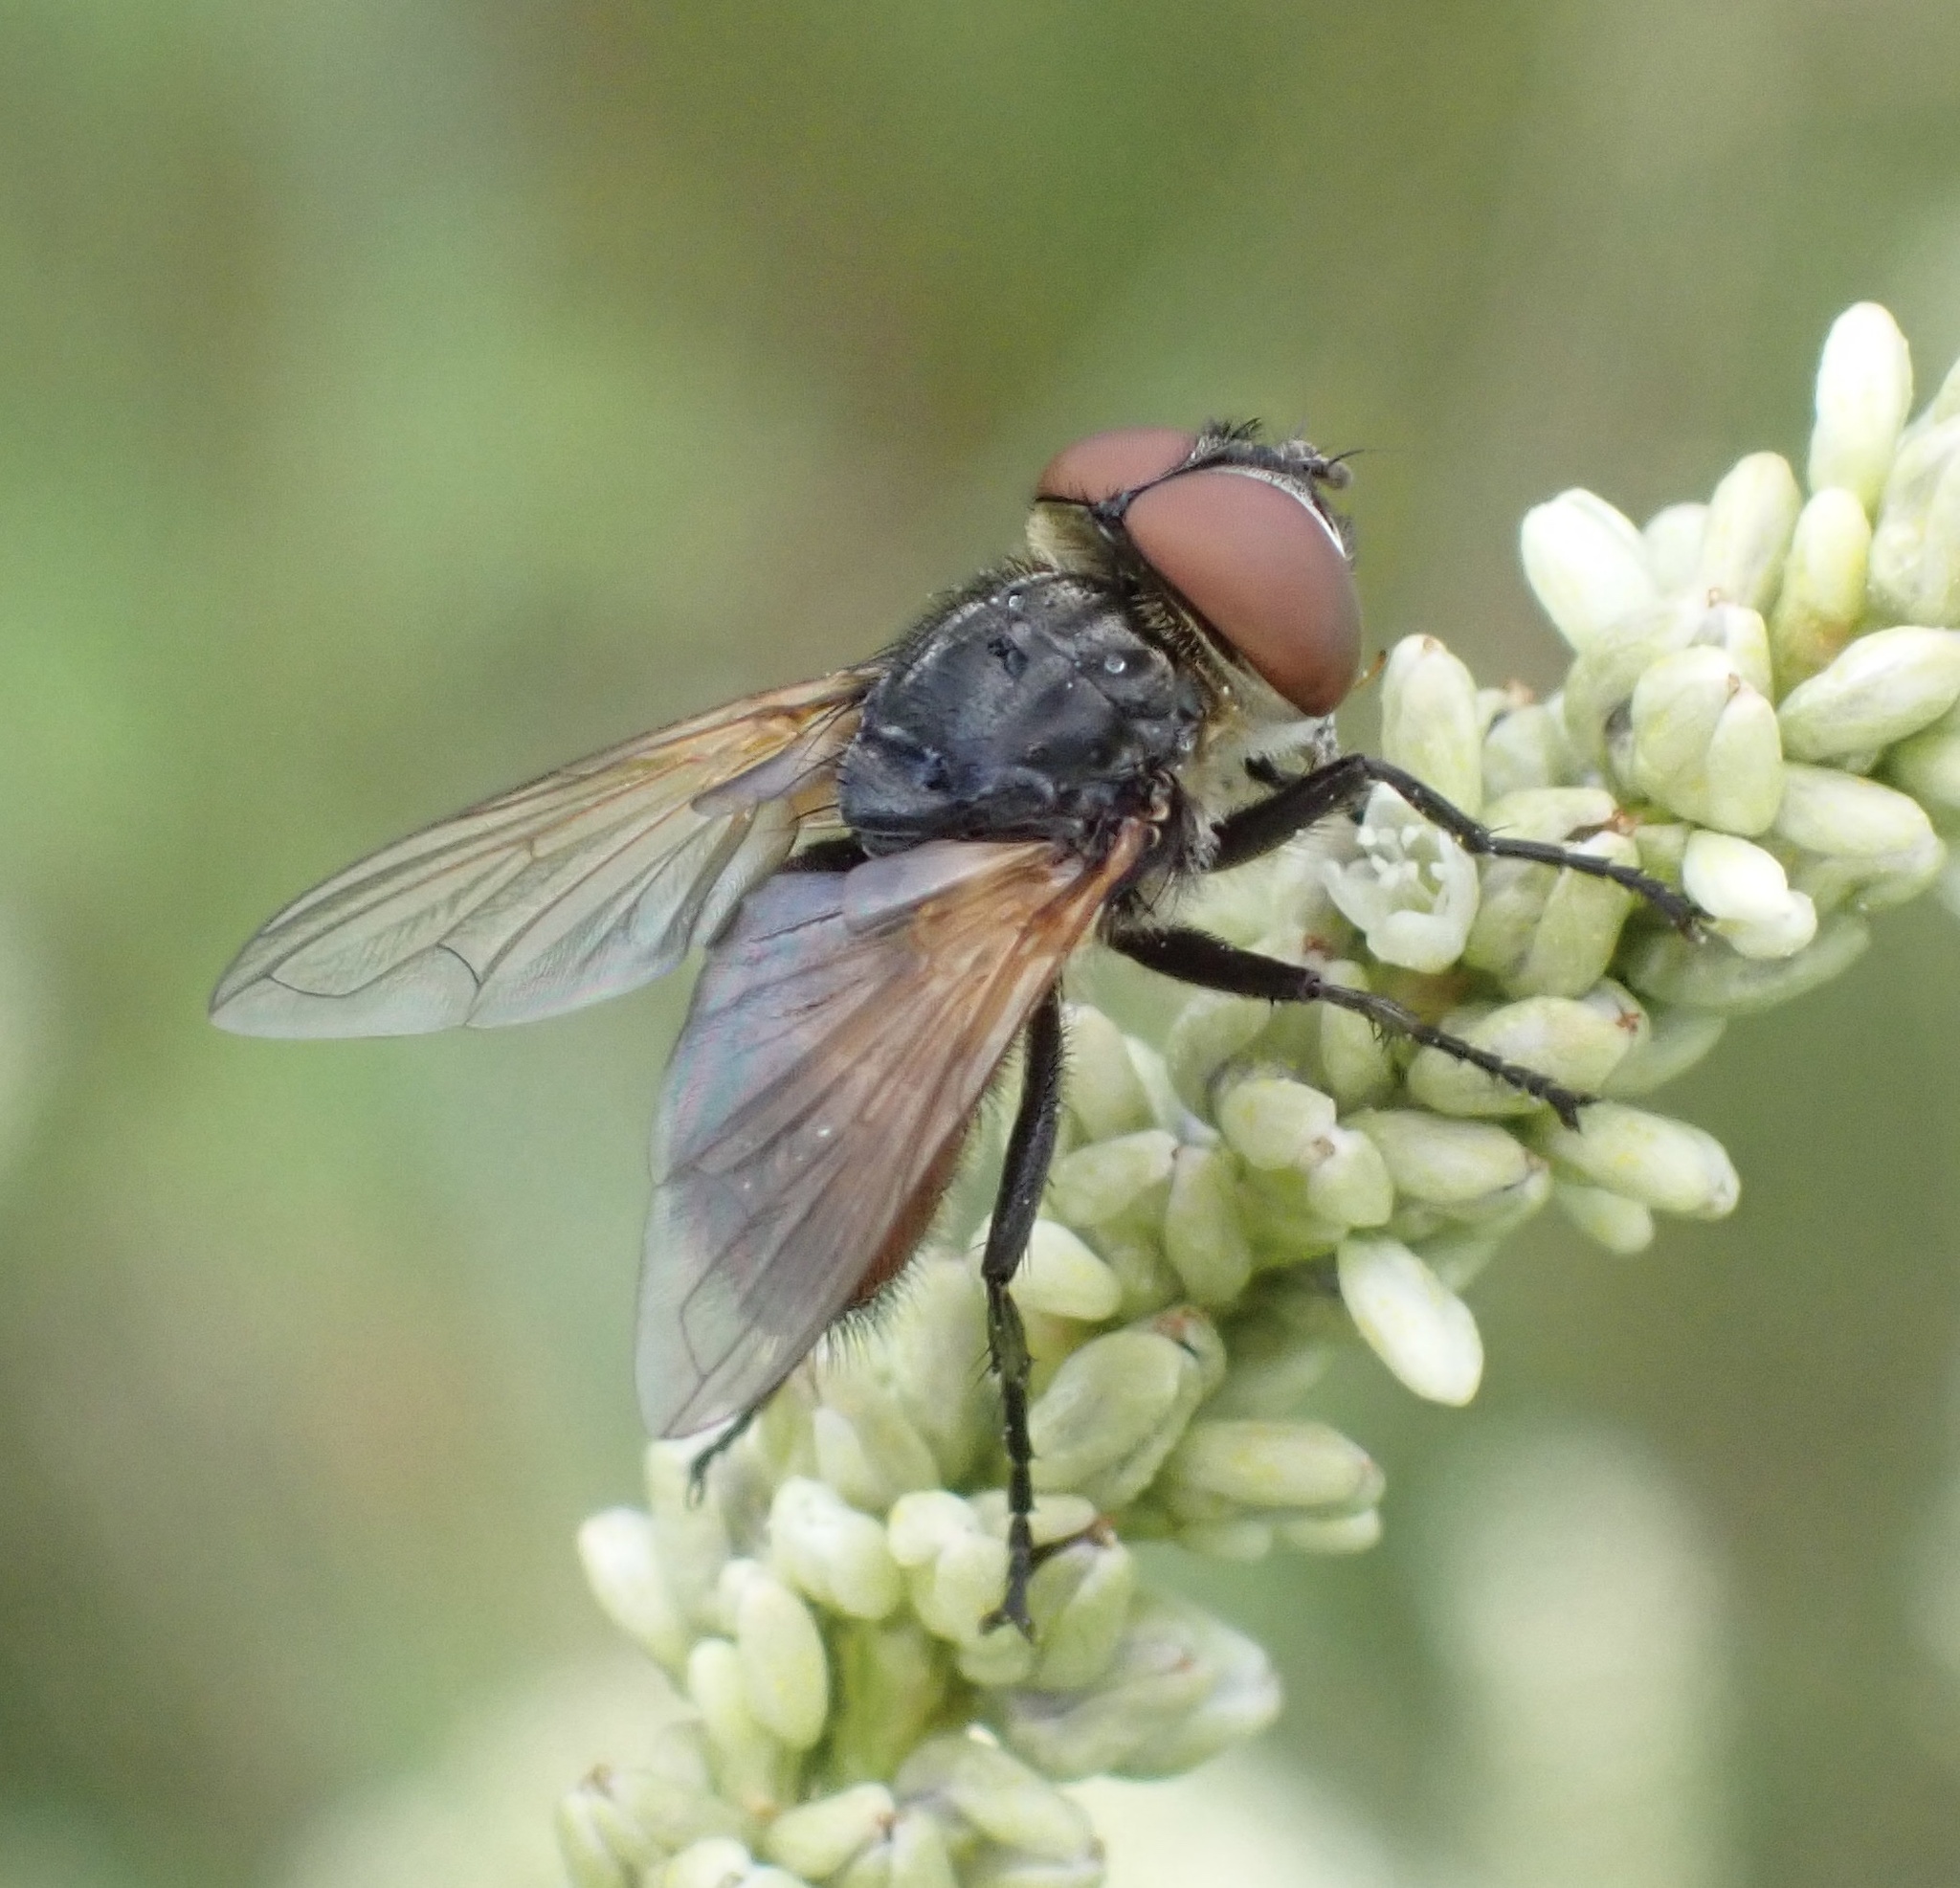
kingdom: Animalia
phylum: Arthropoda
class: Insecta
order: Diptera
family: Tachinidae
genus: Phasia
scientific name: Phasia aurigera
